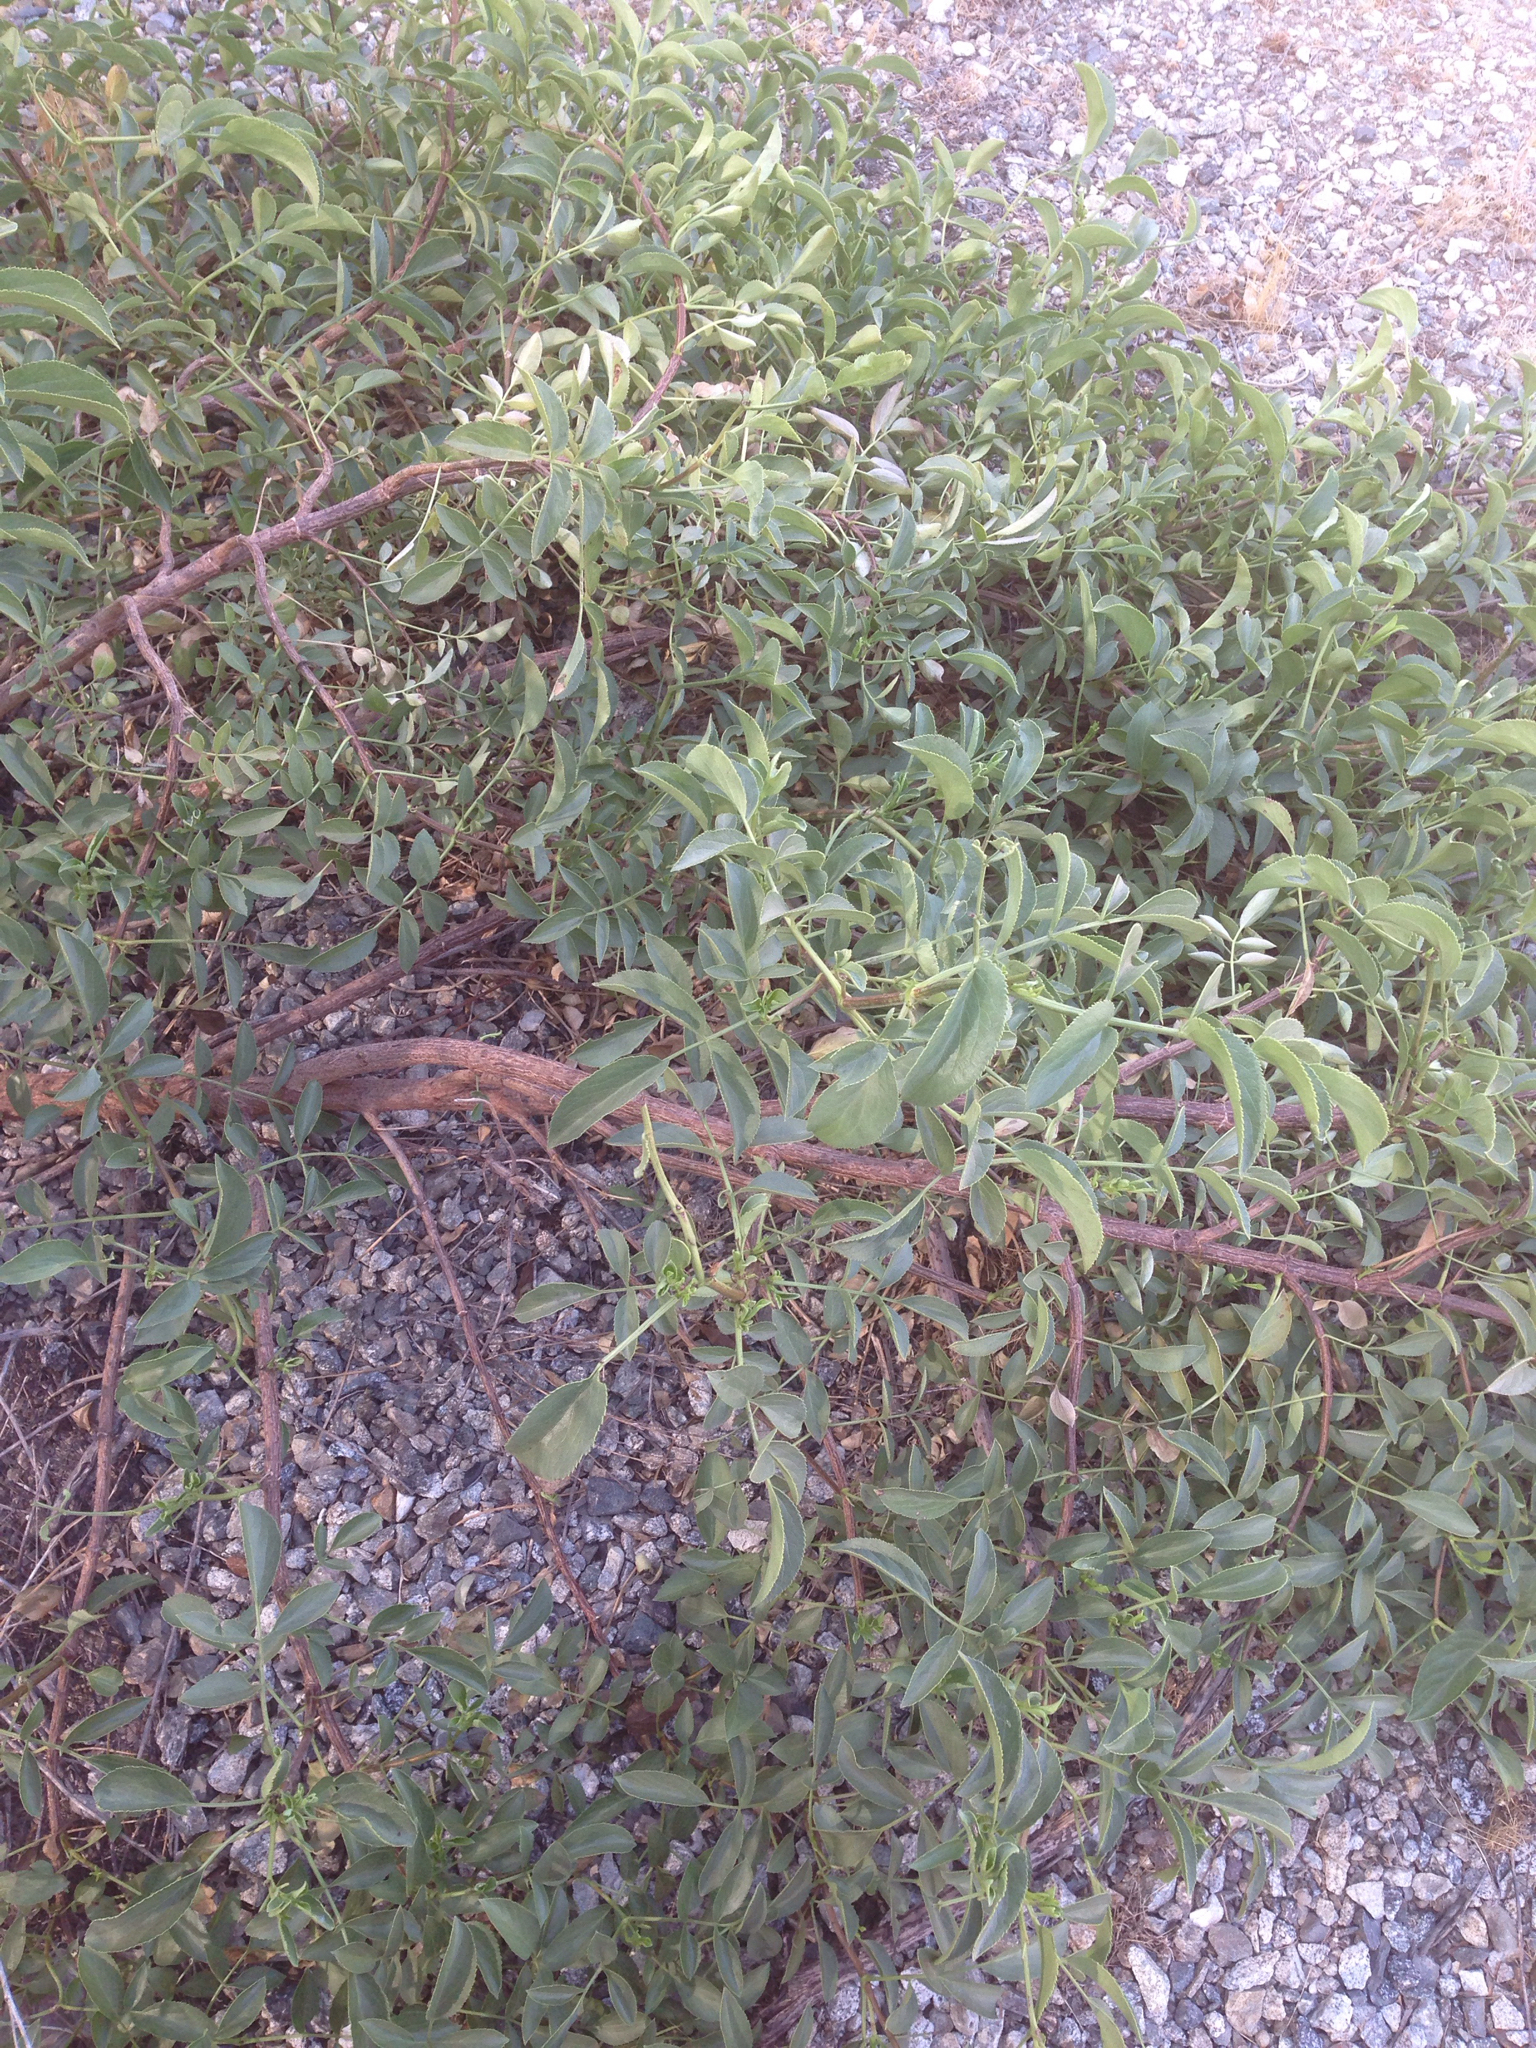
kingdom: Plantae
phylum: Tracheophyta
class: Magnoliopsida
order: Dipsacales
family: Viburnaceae
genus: Sambucus
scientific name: Sambucus cerulea
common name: Blue elder
